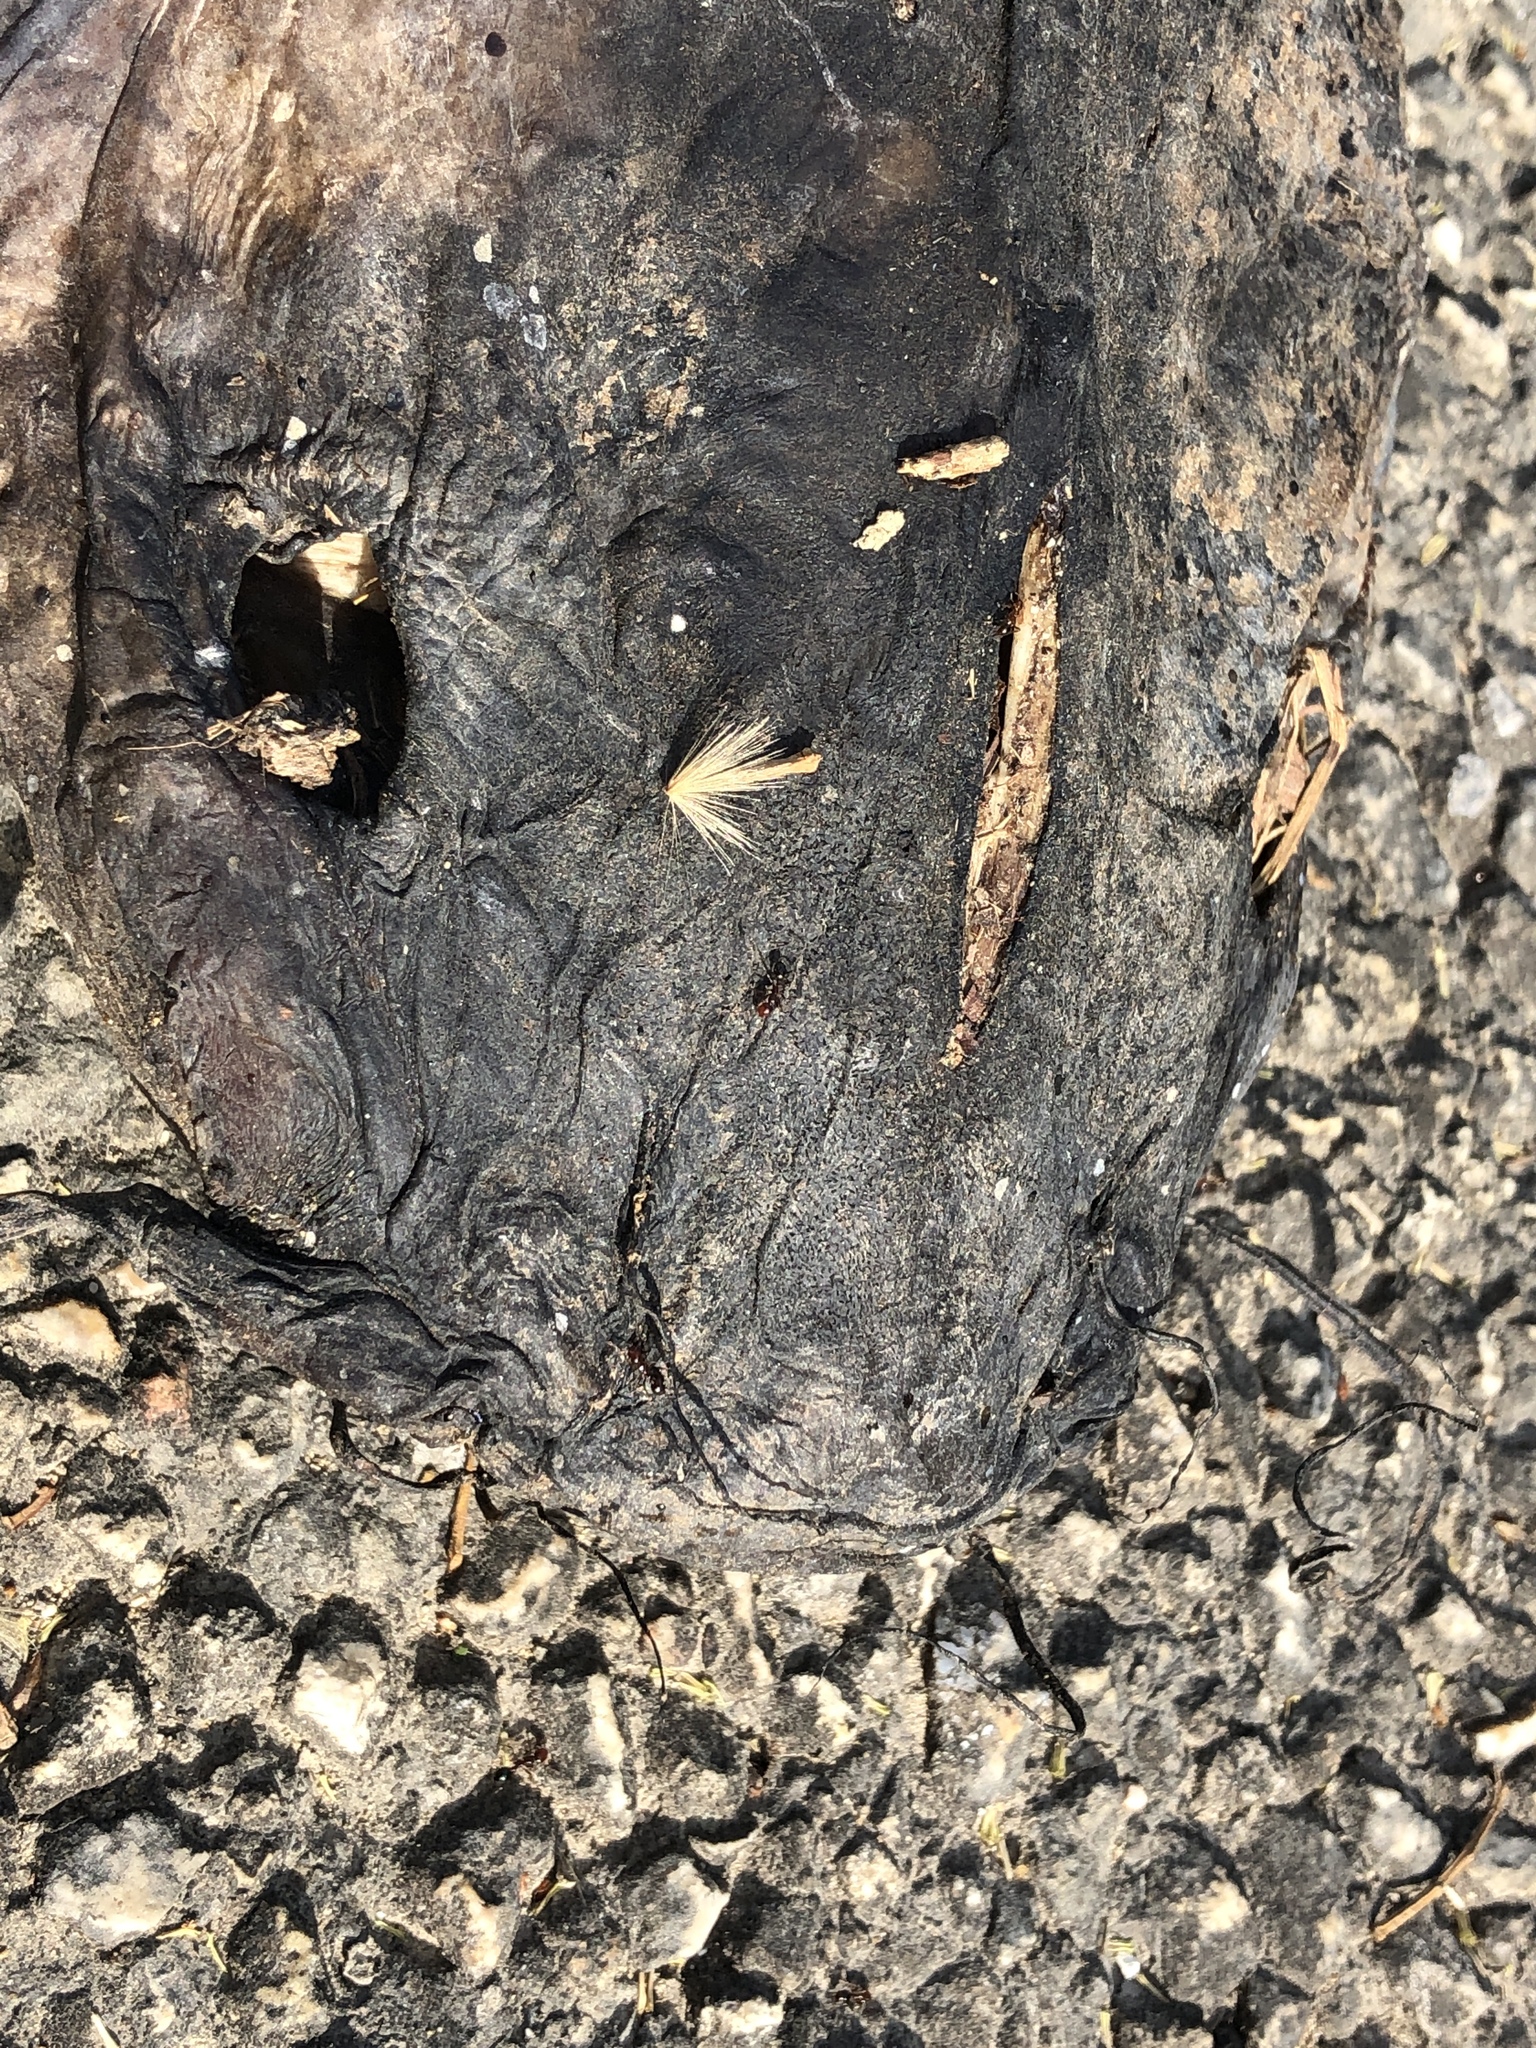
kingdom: Animalia
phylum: Chordata
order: Siluriformes
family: Ictaluridae
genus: Pylodictis
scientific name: Pylodictis olivaris
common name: Flathead catfish
